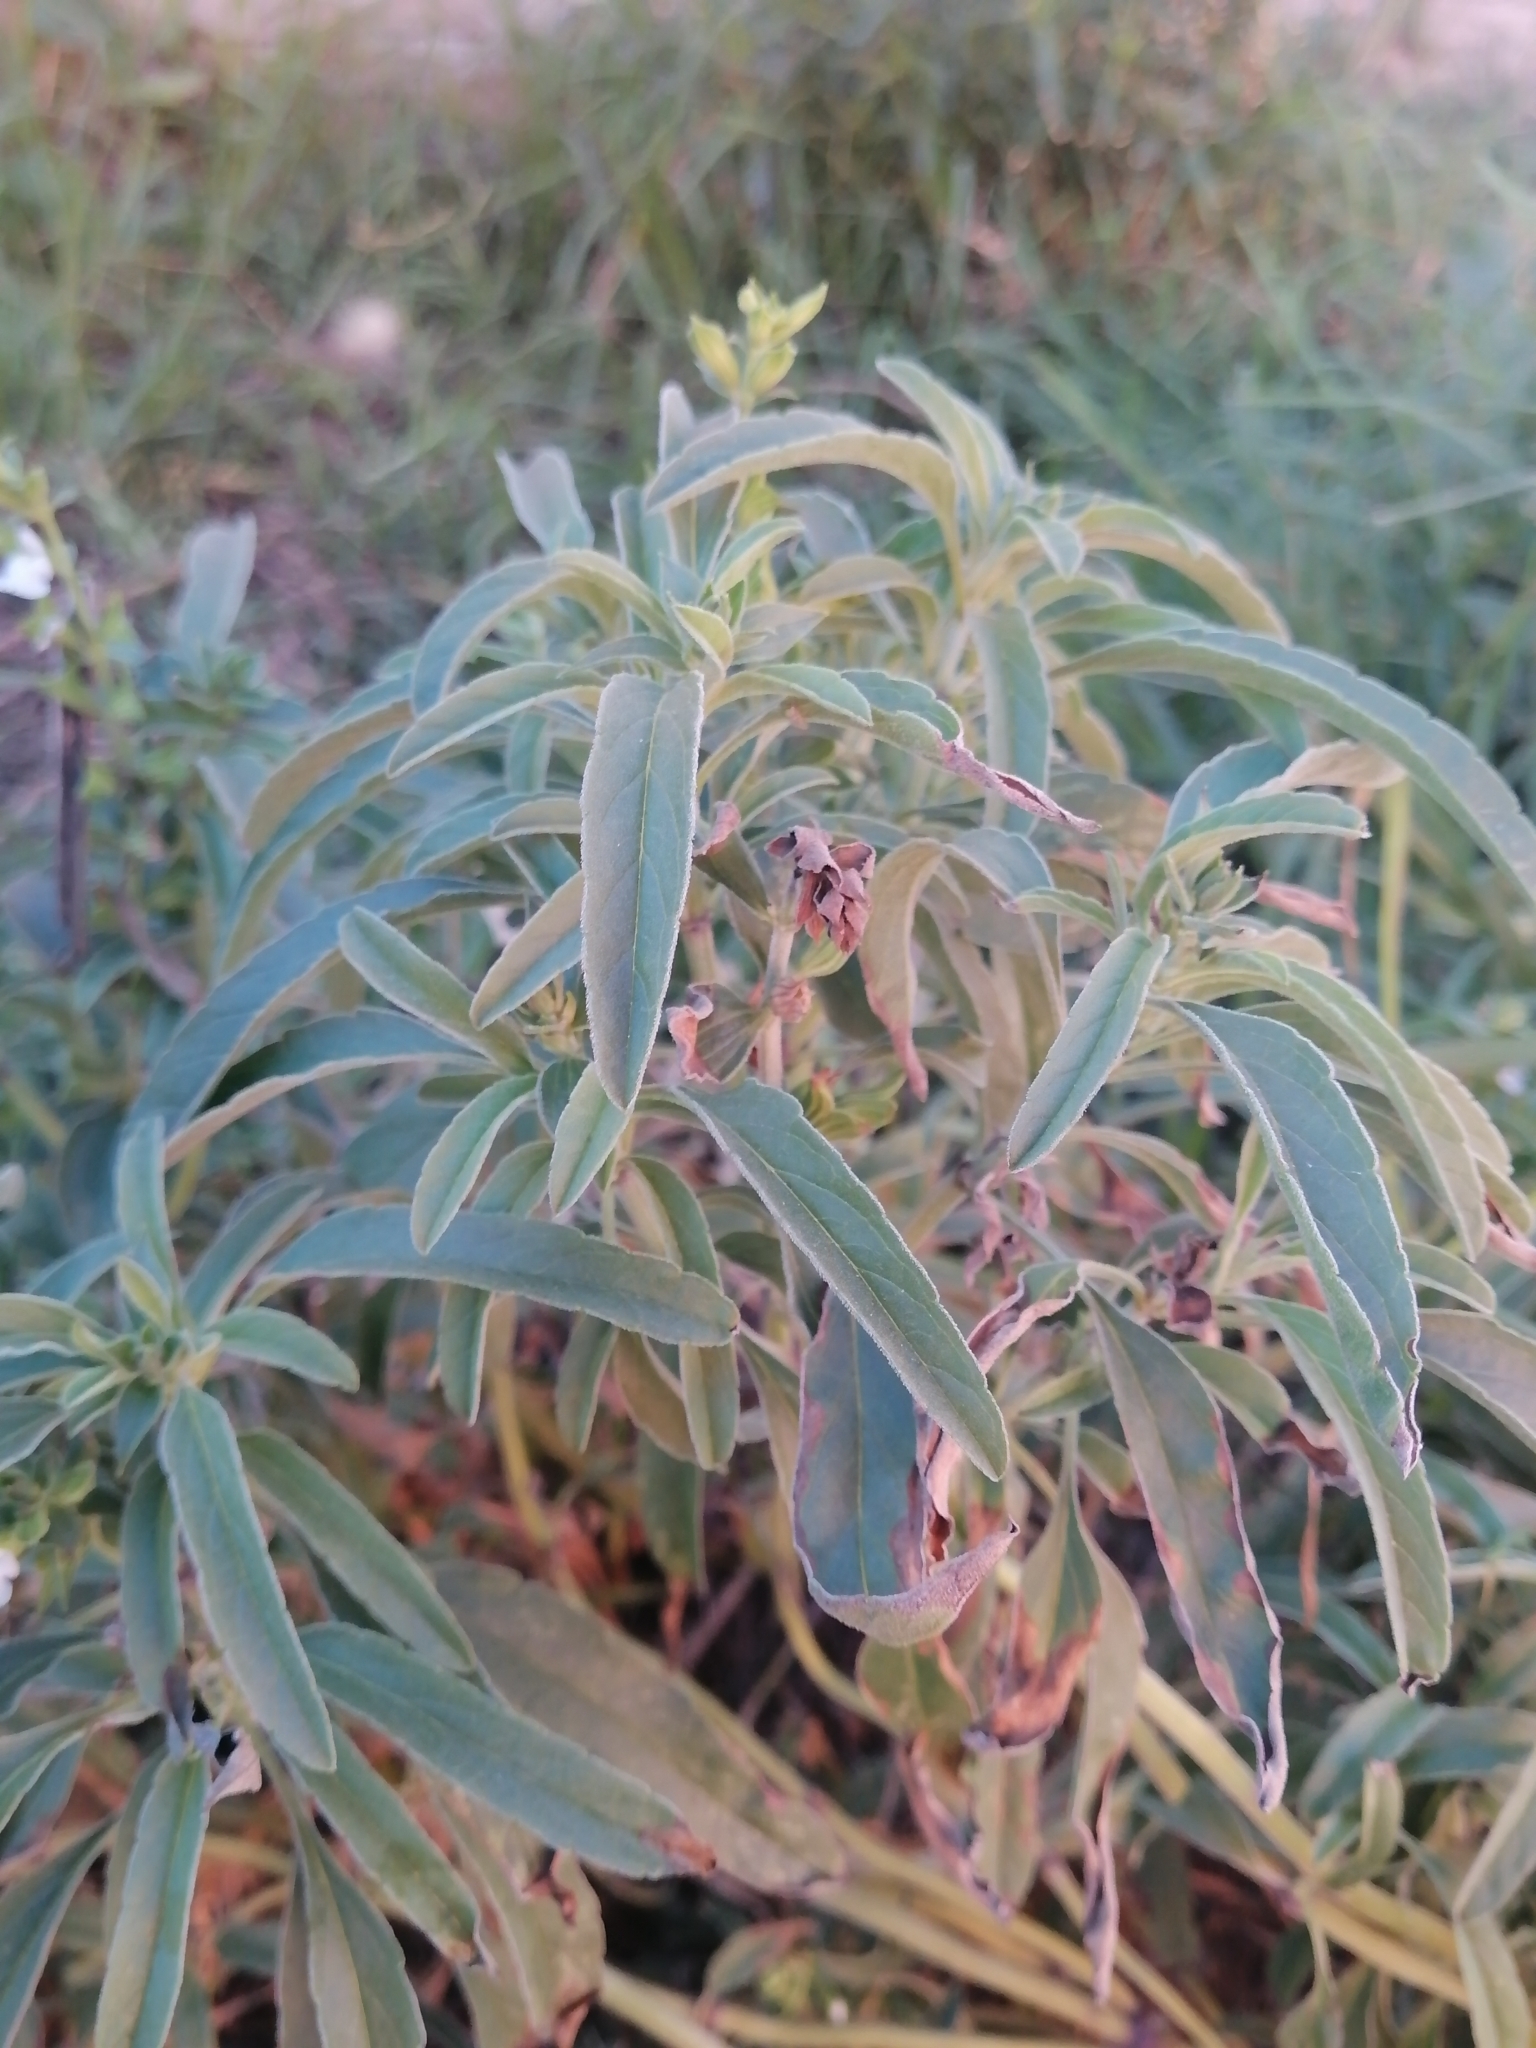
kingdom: Plantae
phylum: Tracheophyta
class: Magnoliopsida
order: Lamiales
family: Lamiaceae
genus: Salvia
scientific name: Salvia reflexa
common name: Mintweed
